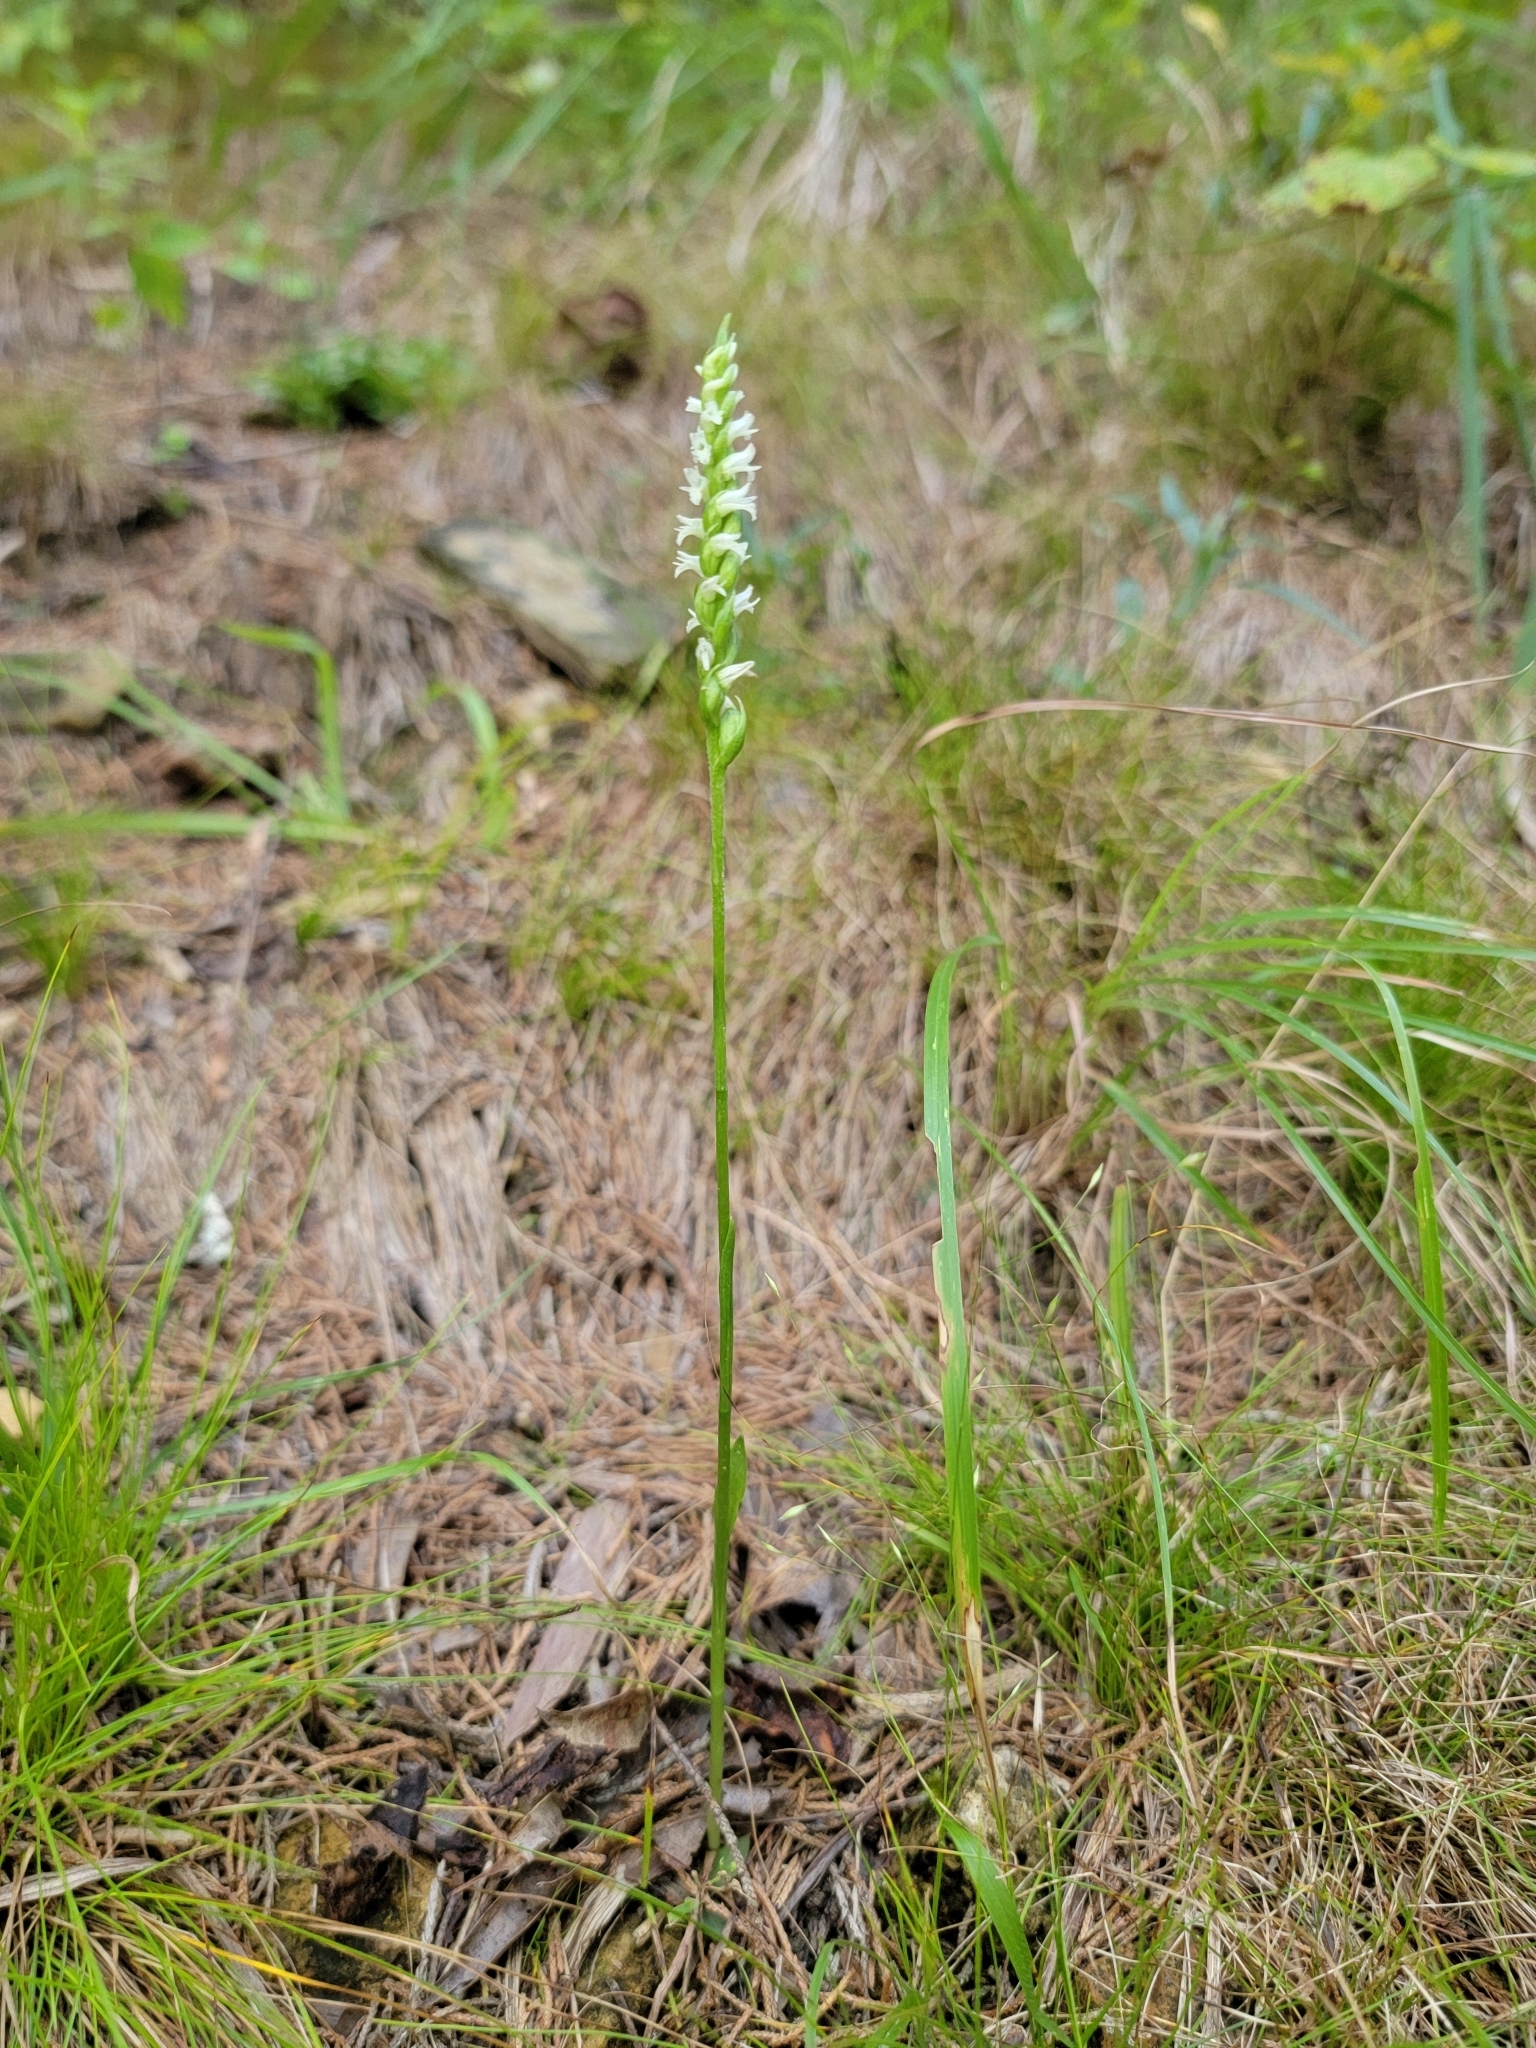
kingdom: Plantae
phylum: Tracheophyta
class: Liliopsida
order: Asparagales
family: Orchidaceae
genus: Spiranthes
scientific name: Spiranthes ovalis
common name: October ladies'-tresses
